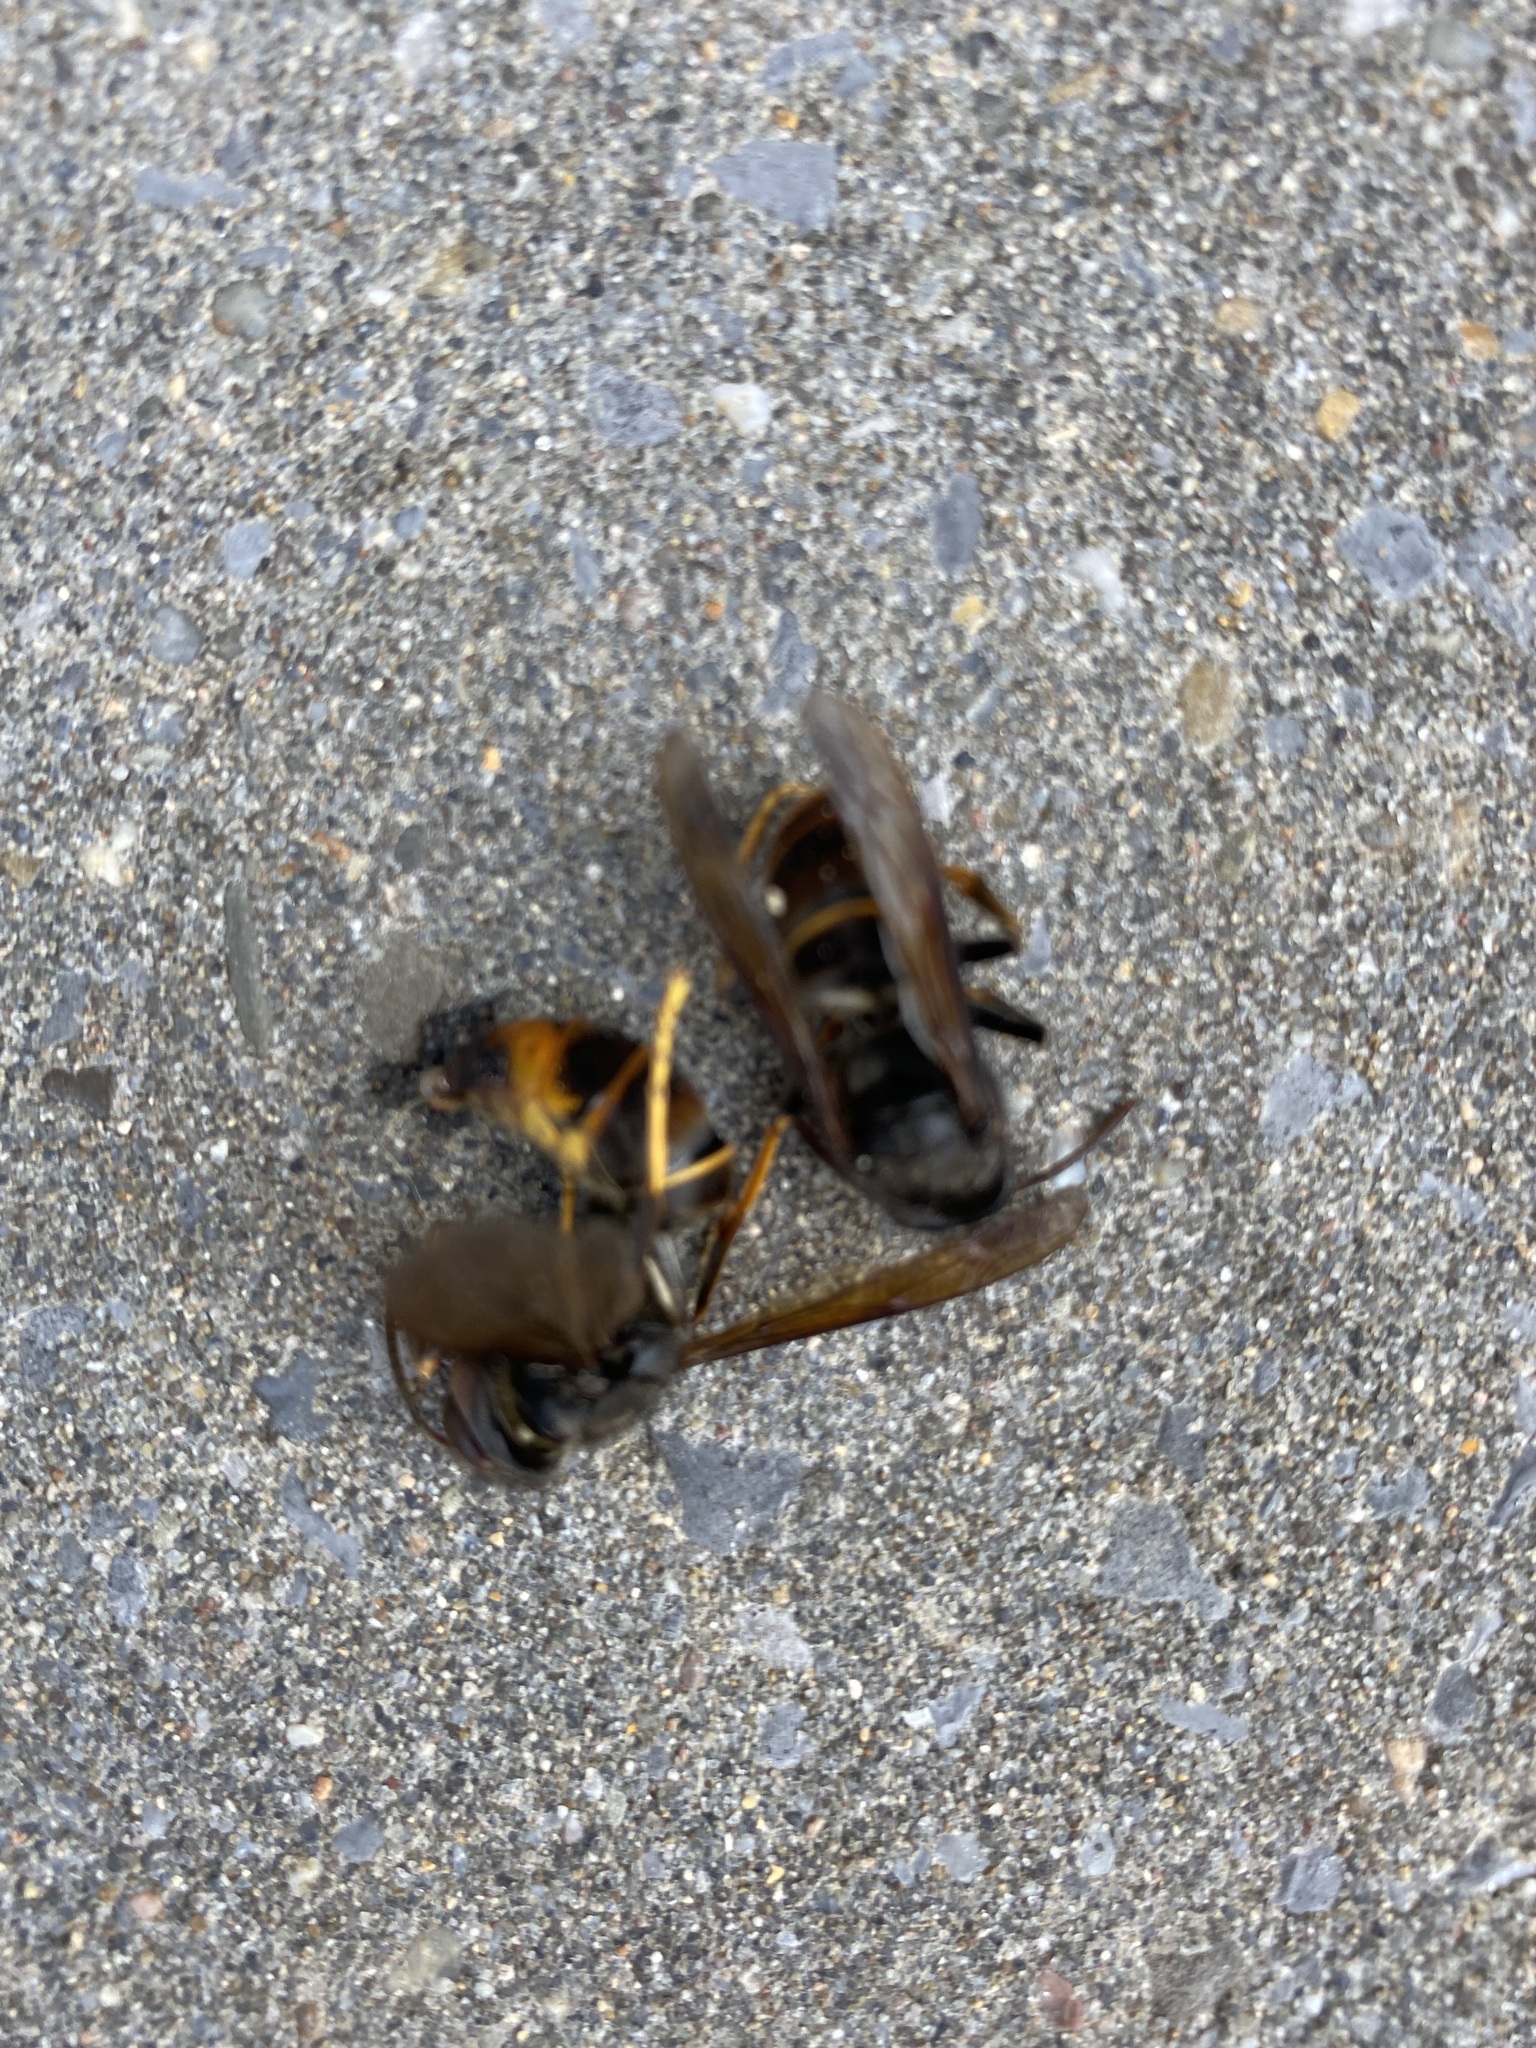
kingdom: Animalia
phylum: Arthropoda
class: Insecta
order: Hymenoptera
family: Vespidae
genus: Vespa
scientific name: Vespa velutina
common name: Asian hornet
